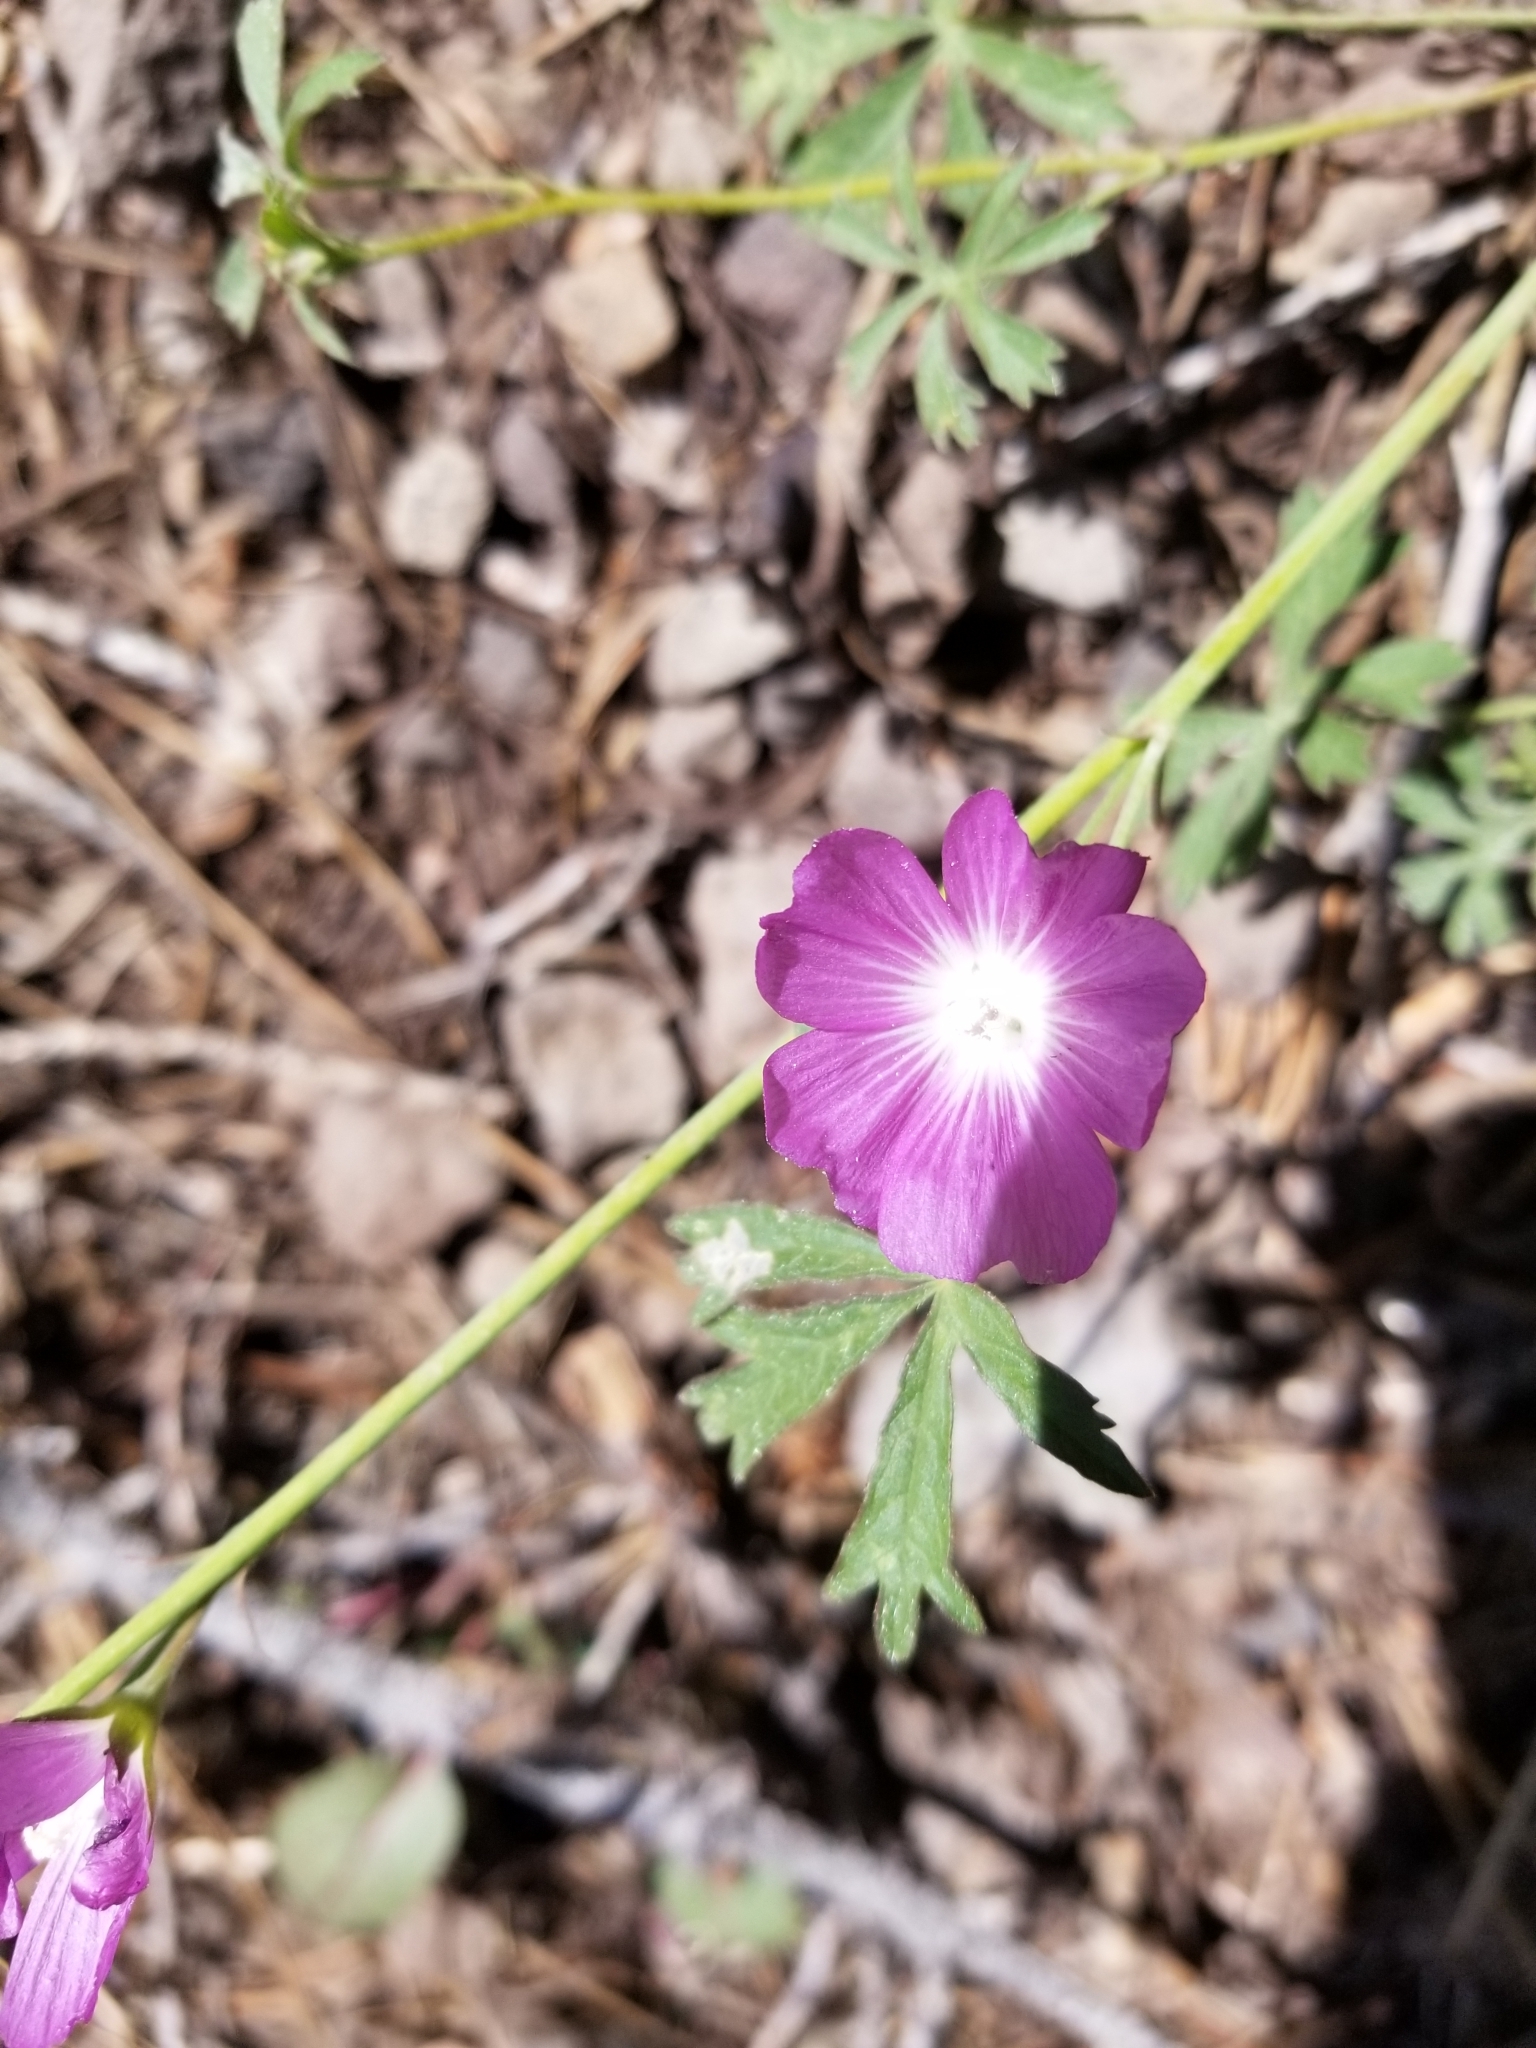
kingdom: Plantae
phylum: Tracheophyta
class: Magnoliopsida
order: Malvales
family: Malvaceae
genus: Sidalcea
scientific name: Sidalcea glaucescens
